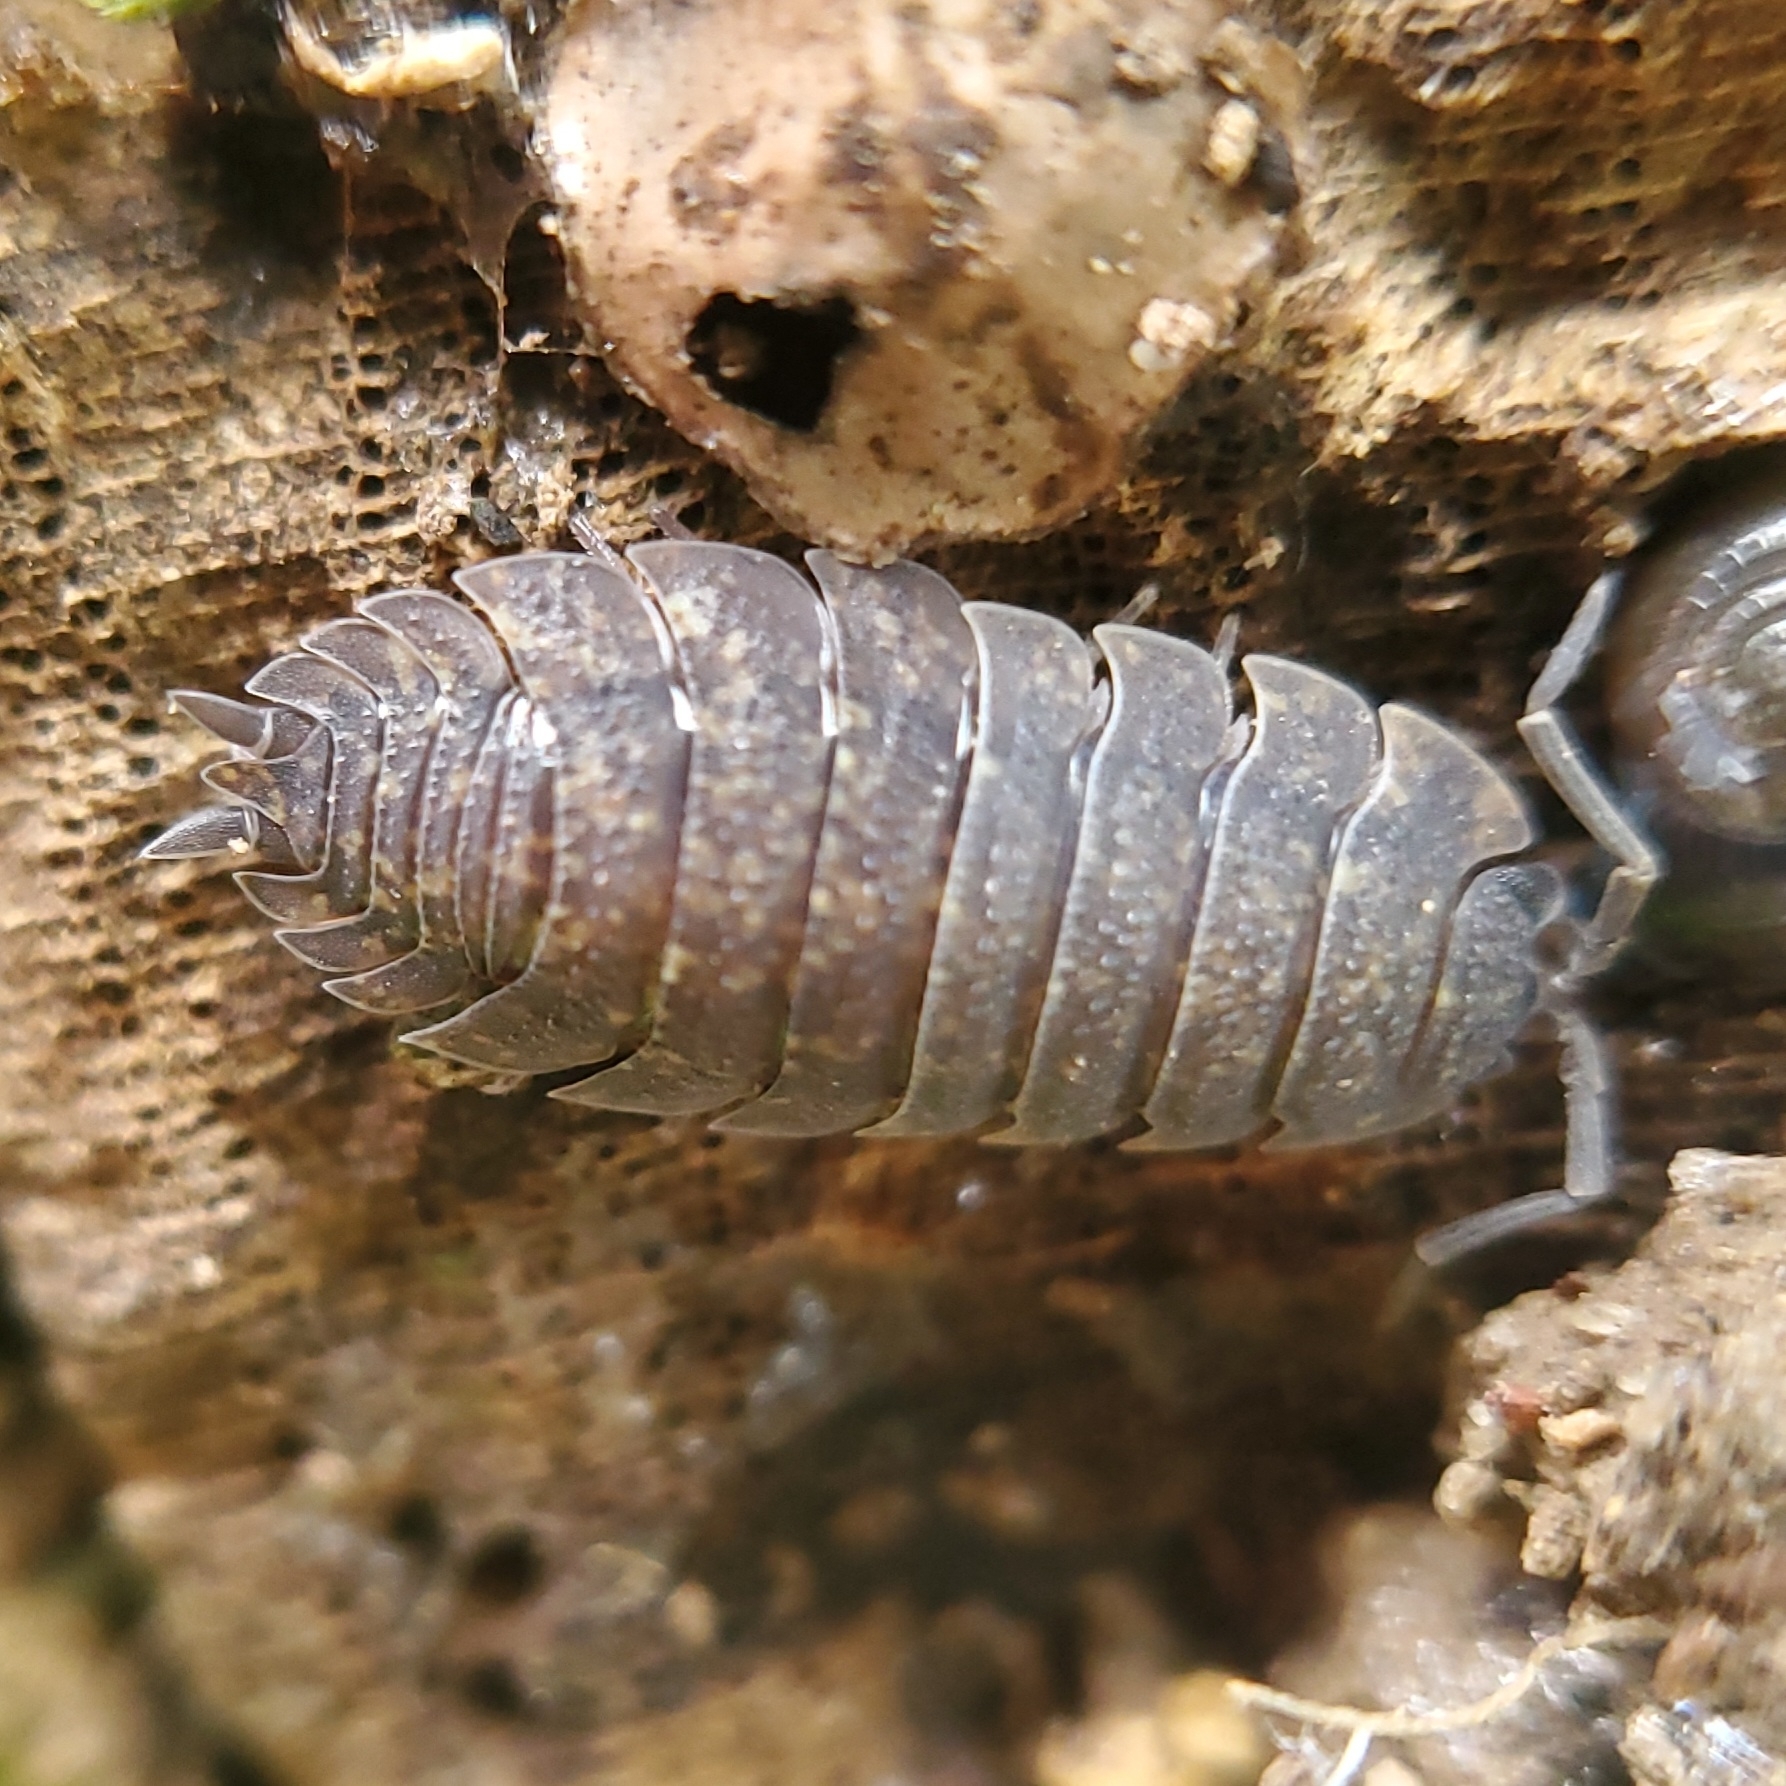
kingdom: Animalia
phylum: Arthropoda
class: Malacostraca
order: Isopoda
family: Porcellionidae
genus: Porcellio
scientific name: Porcellio scaber
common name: Common rough woodlouse
